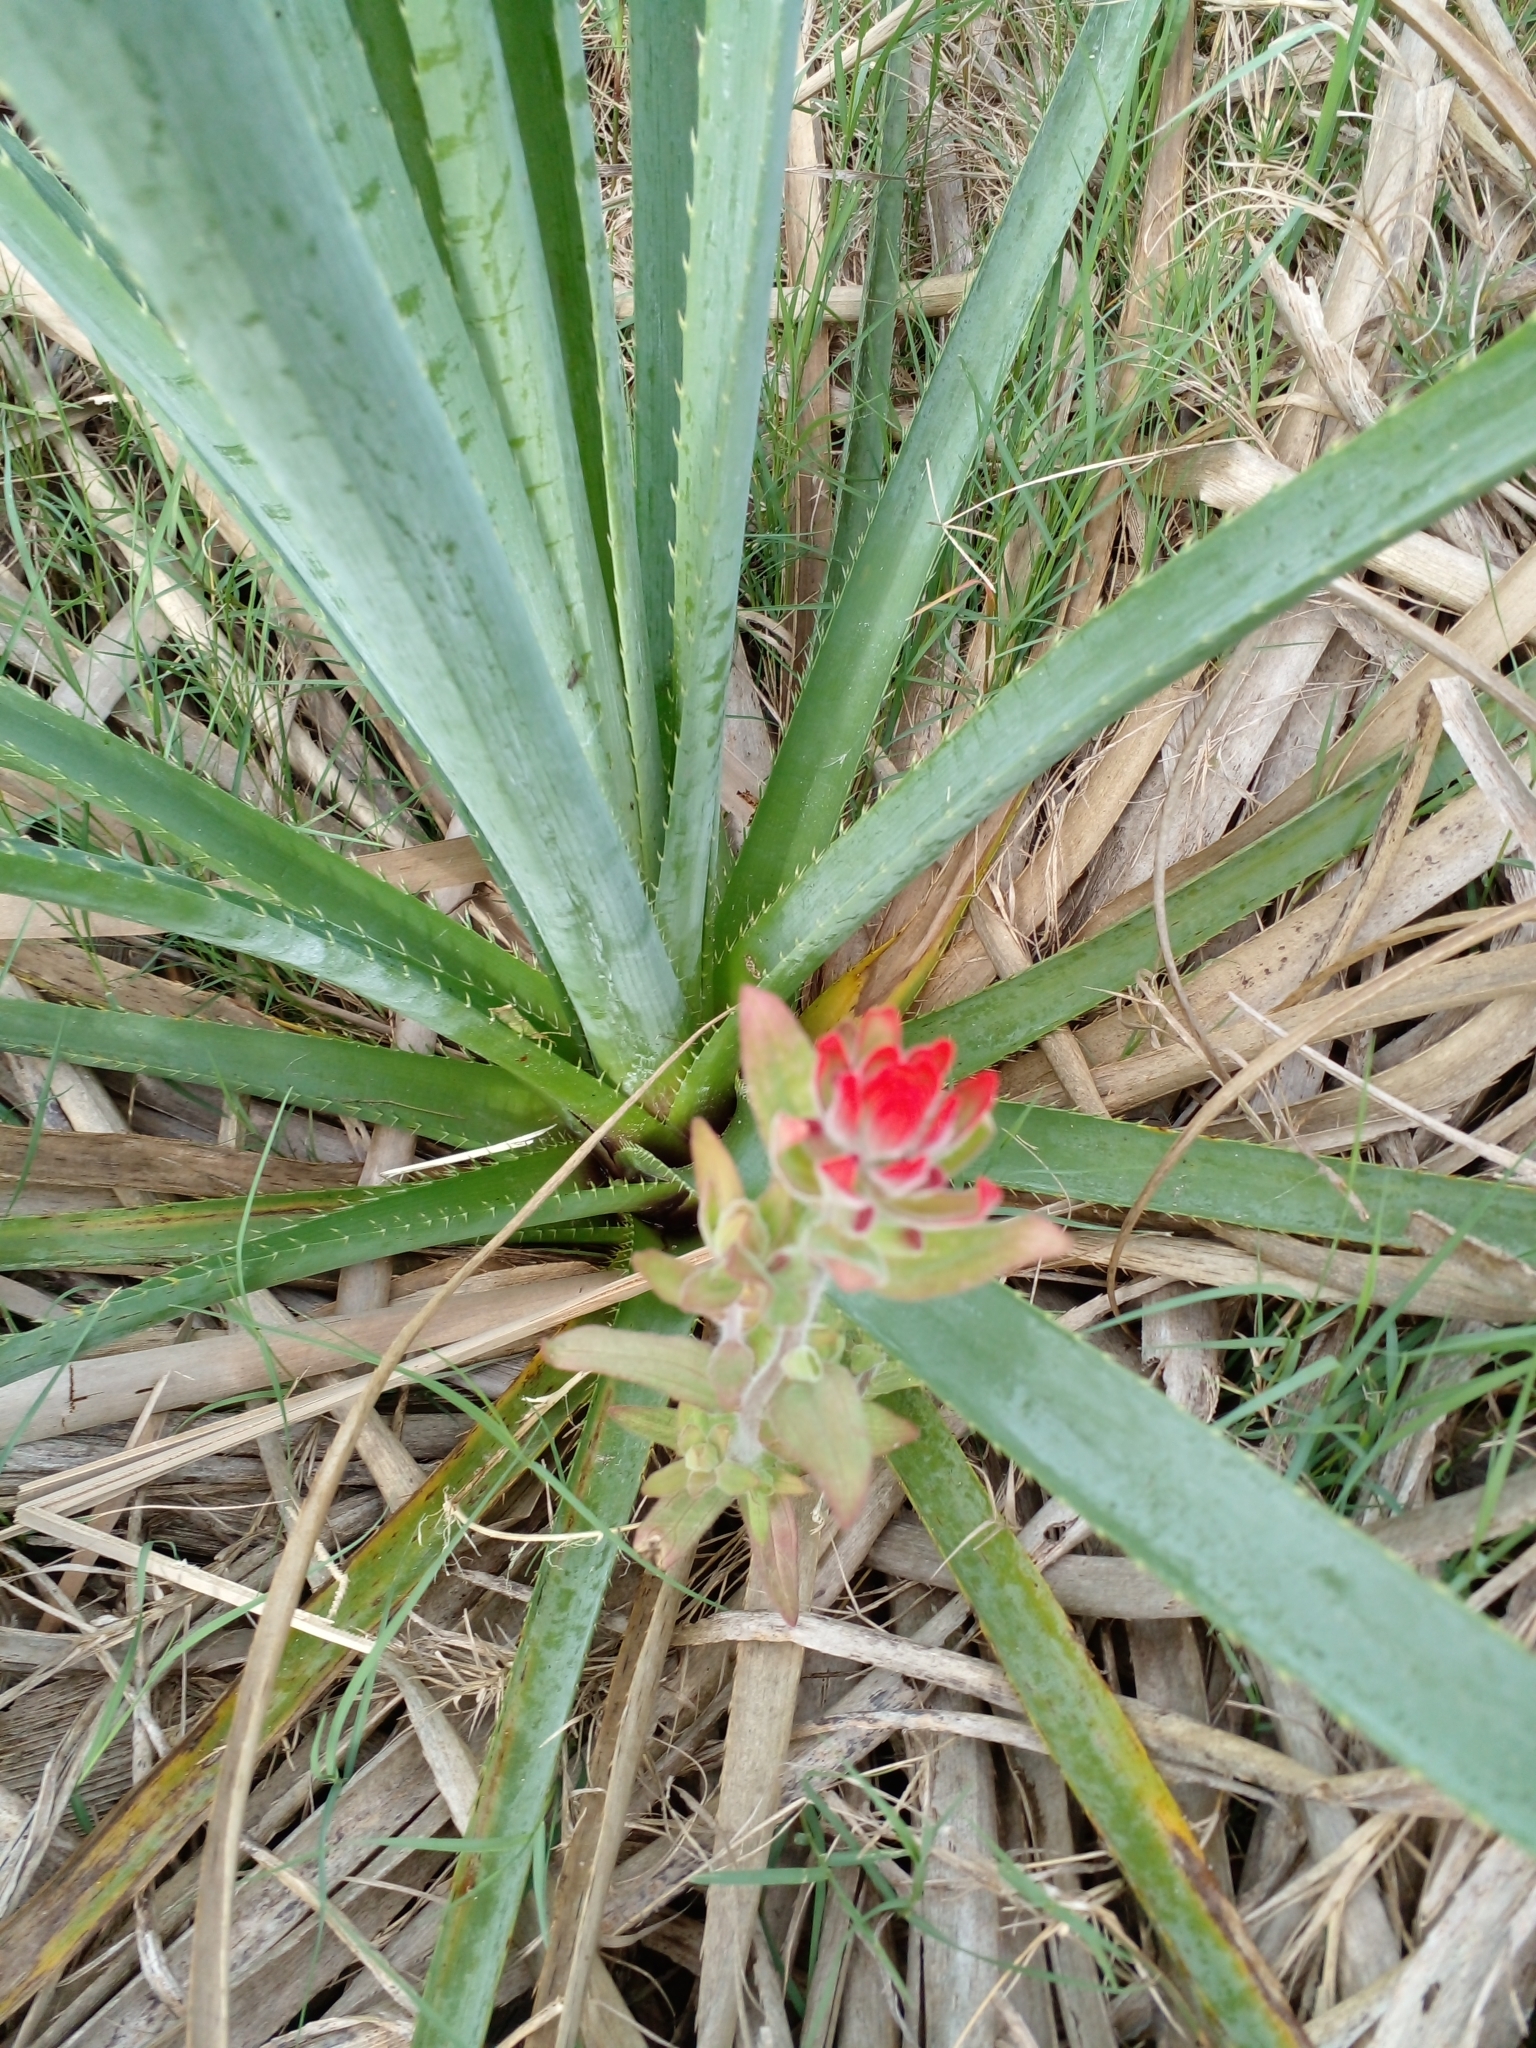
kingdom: Plantae
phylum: Tracheophyta
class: Magnoliopsida
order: Lamiales
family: Orobanchaceae
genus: Castilleja
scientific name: Castilleja arvensis
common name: Indian paintbrush
